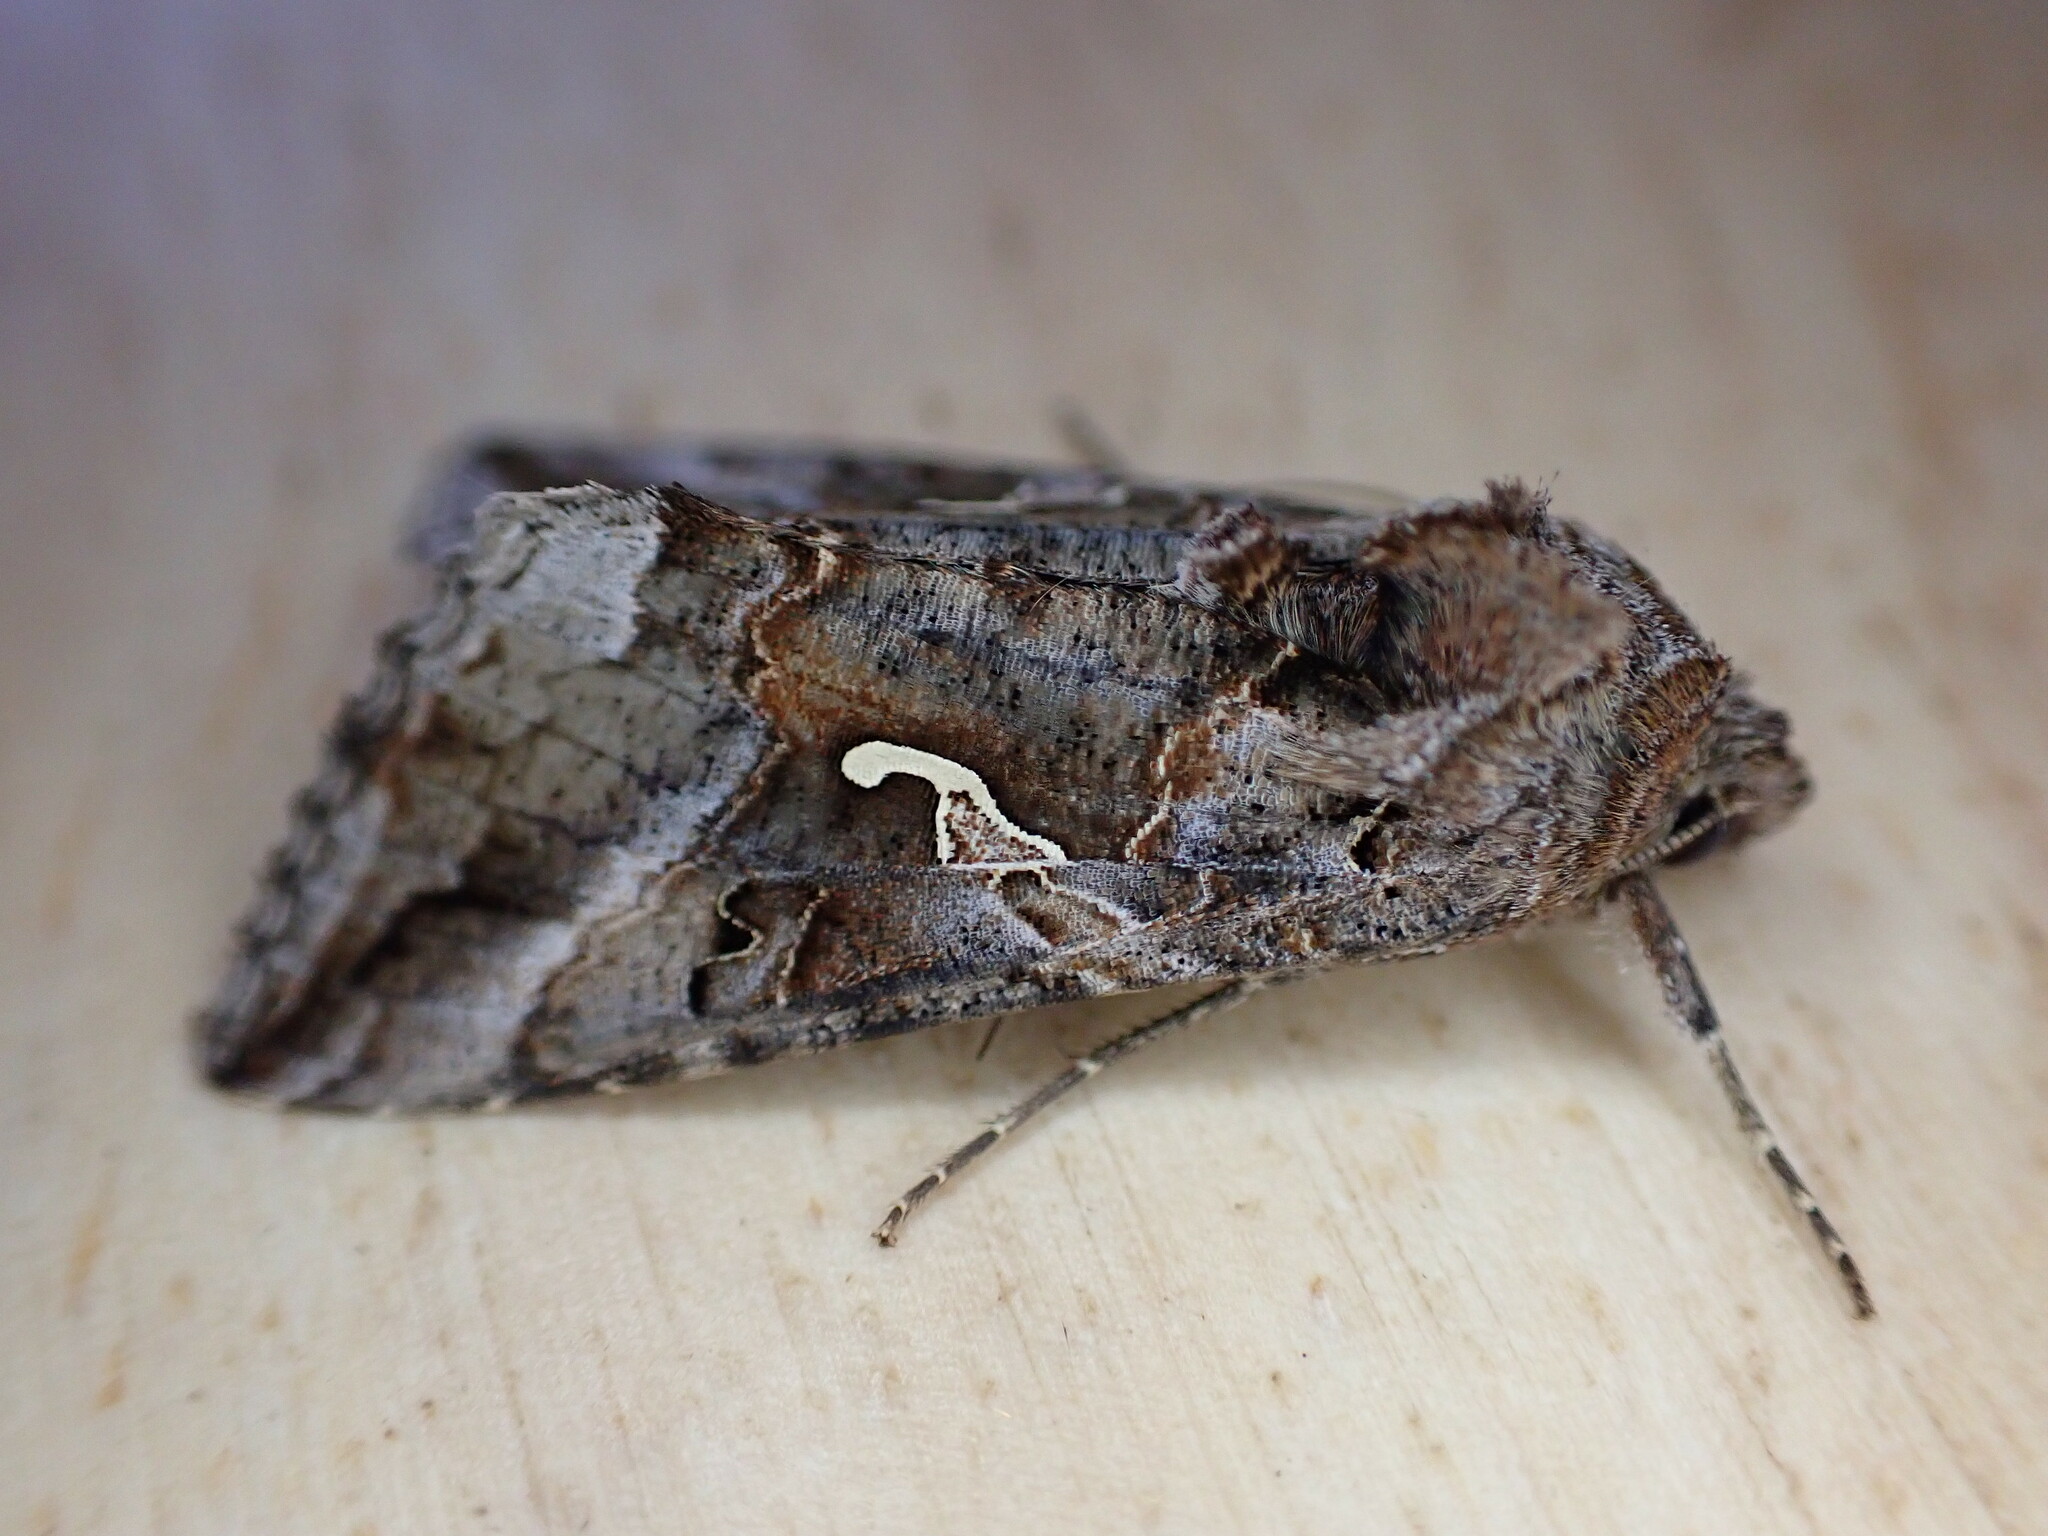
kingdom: Animalia
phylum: Arthropoda
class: Insecta
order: Lepidoptera
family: Noctuidae
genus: Autographa
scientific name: Autographa gamma
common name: Silver y
